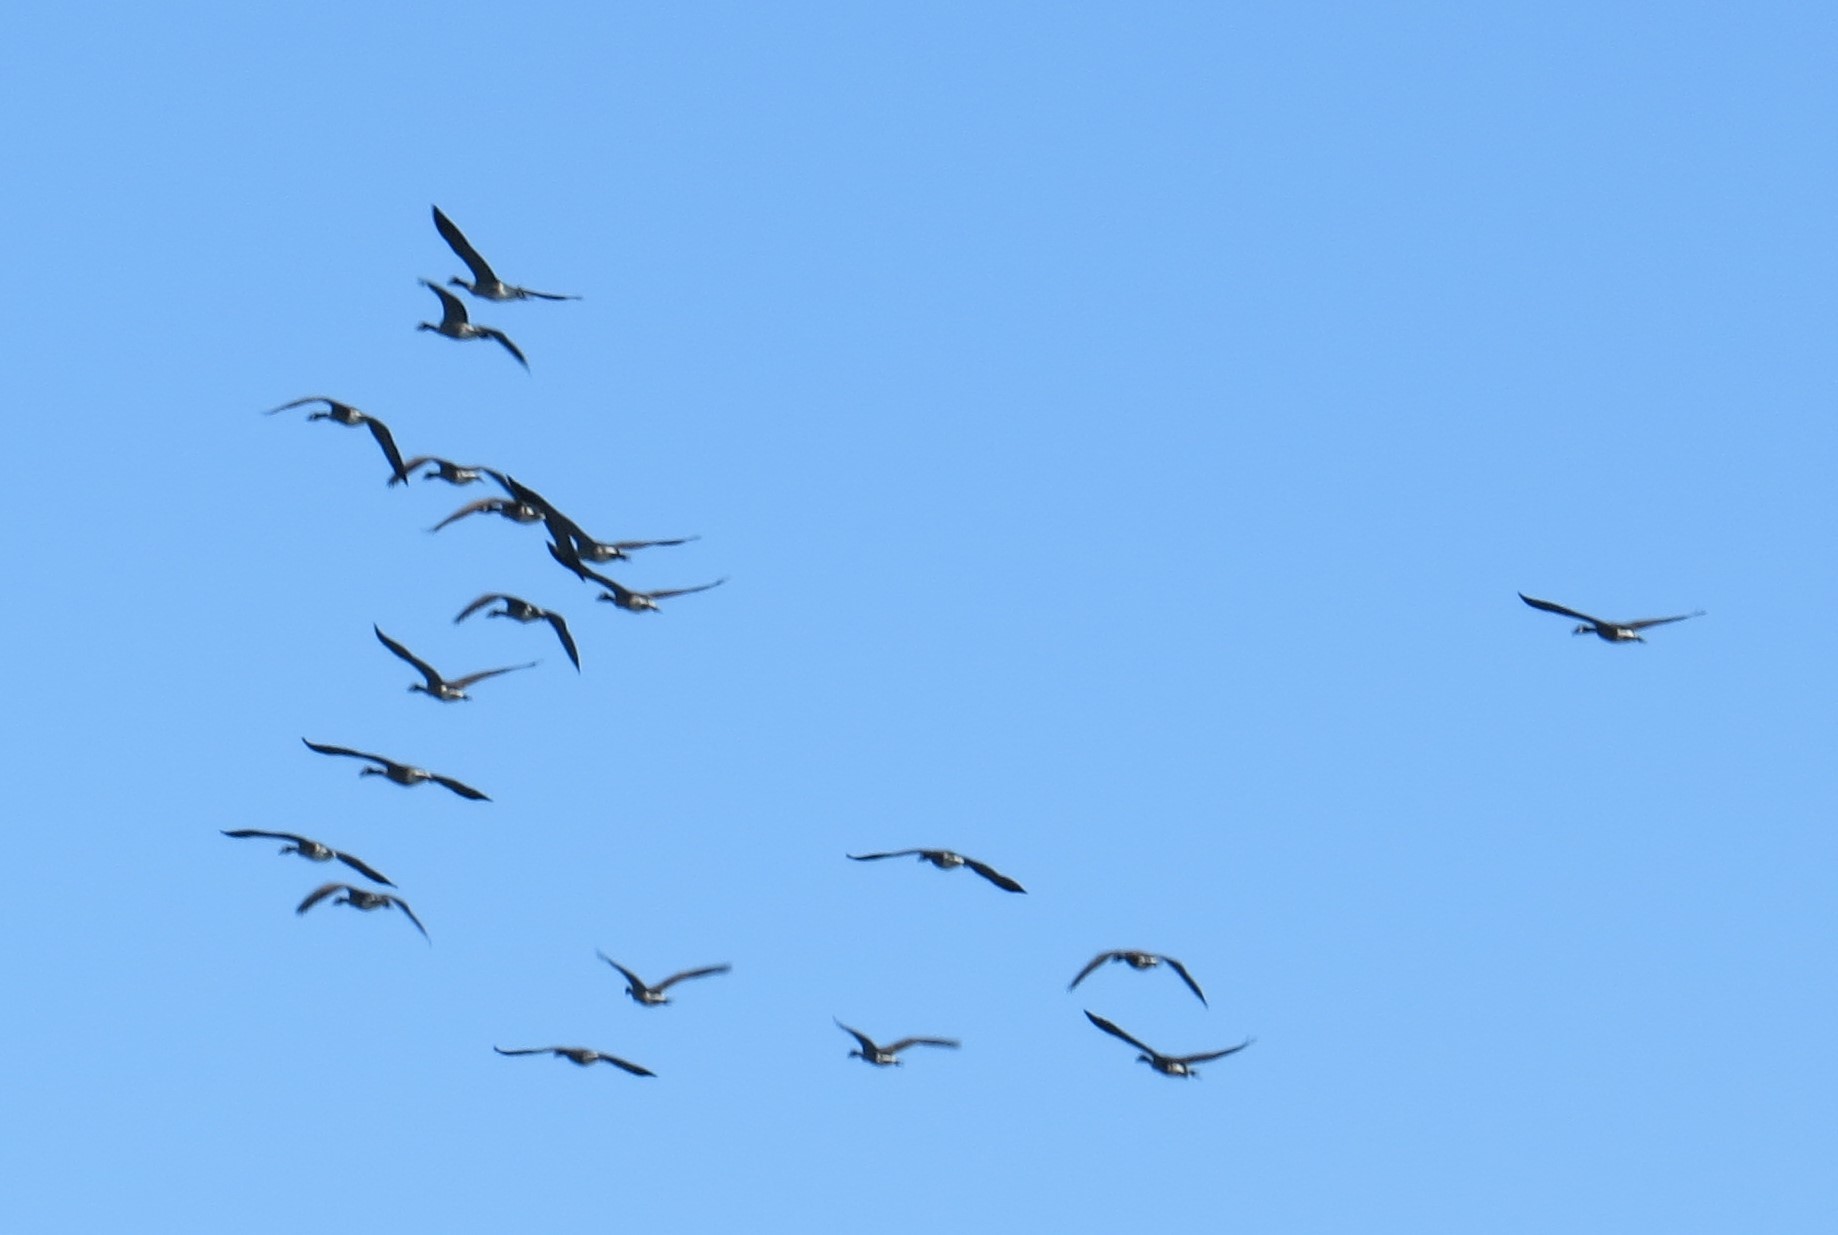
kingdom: Animalia
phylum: Chordata
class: Aves
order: Anseriformes
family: Anatidae
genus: Branta
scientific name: Branta canadensis
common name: Canada goose
